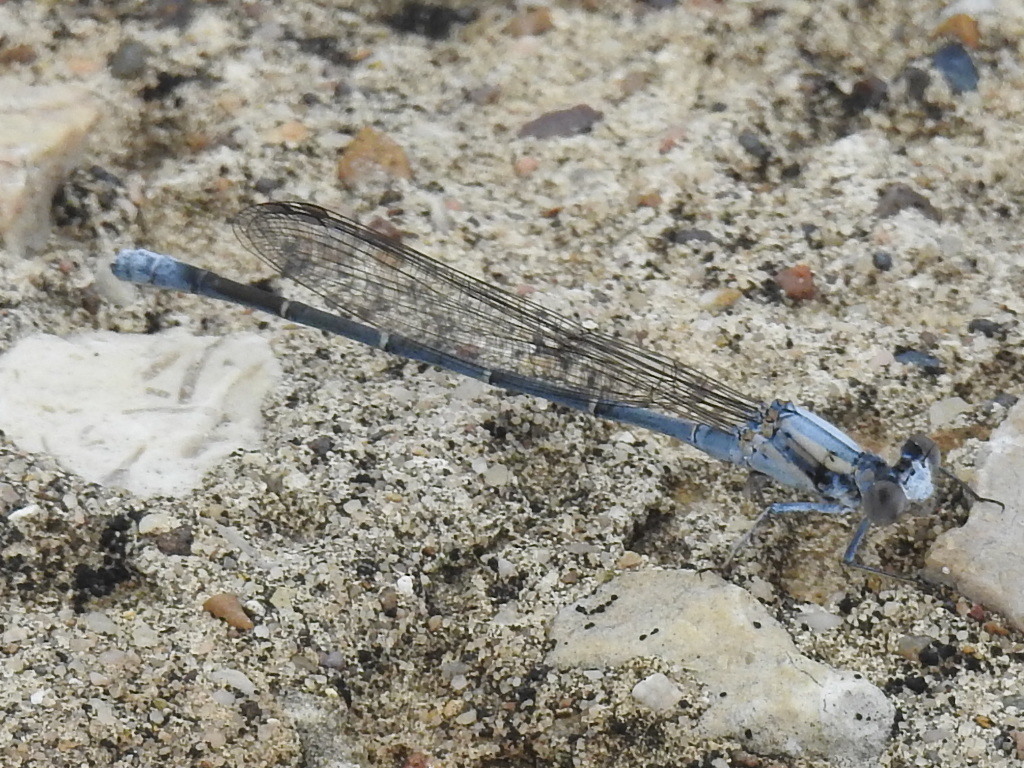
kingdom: Animalia
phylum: Arthropoda
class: Insecta
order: Odonata
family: Coenagrionidae
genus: Argia
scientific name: Argia moesta
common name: Powdered dancer
